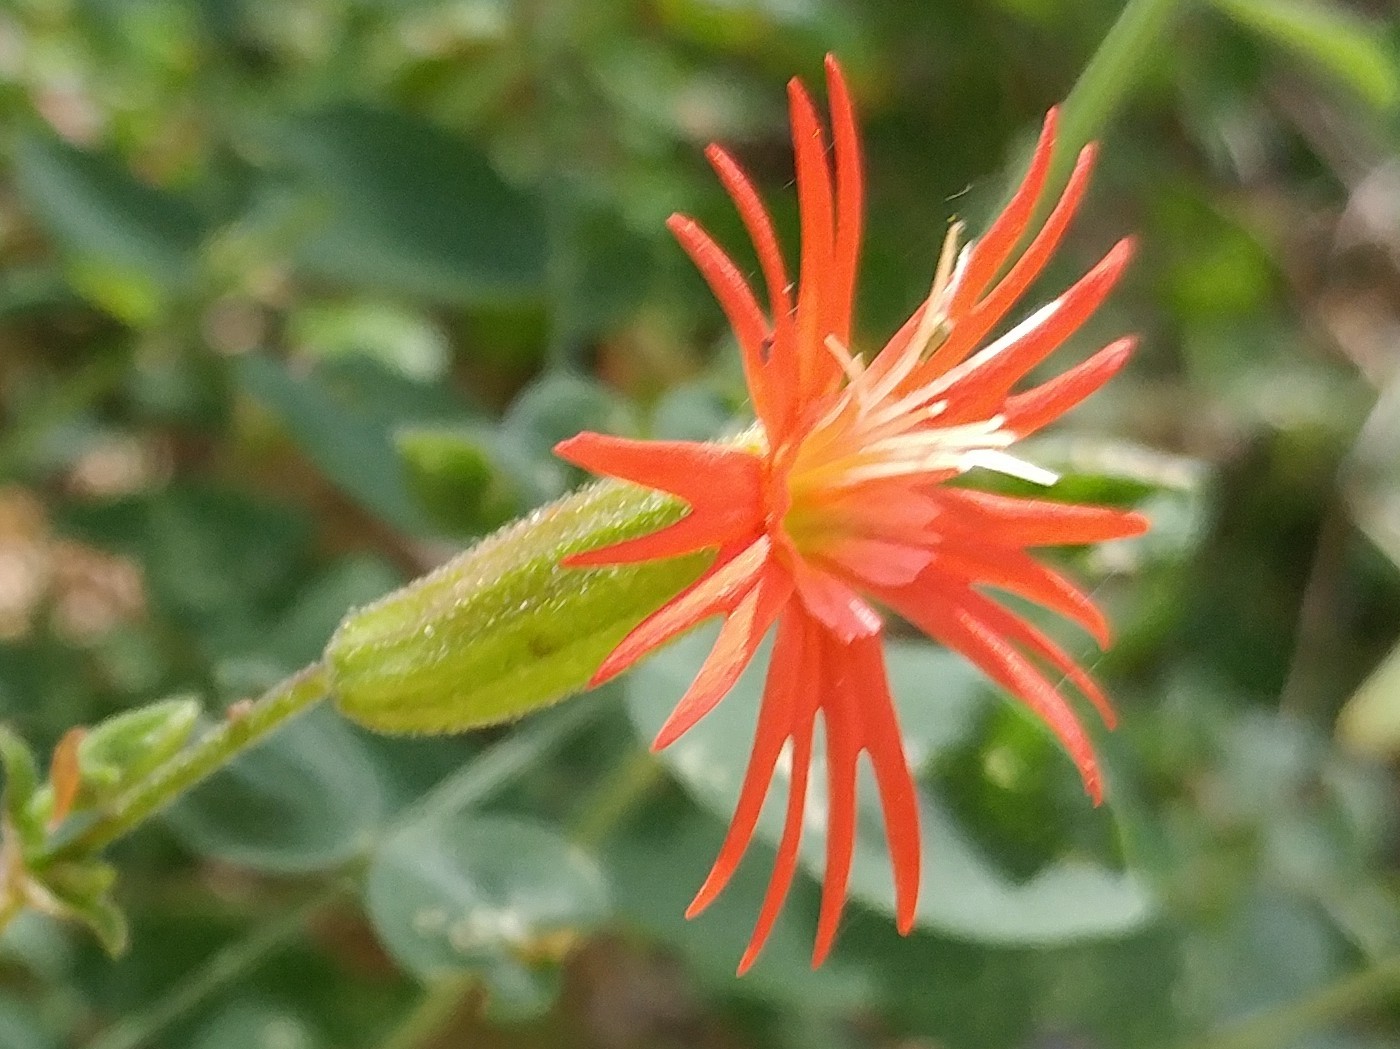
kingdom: Plantae
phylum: Tracheophyta
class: Magnoliopsida
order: Caryophyllales
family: Caryophyllaceae
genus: Silene
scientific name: Silene laciniata
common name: Indian-pink
